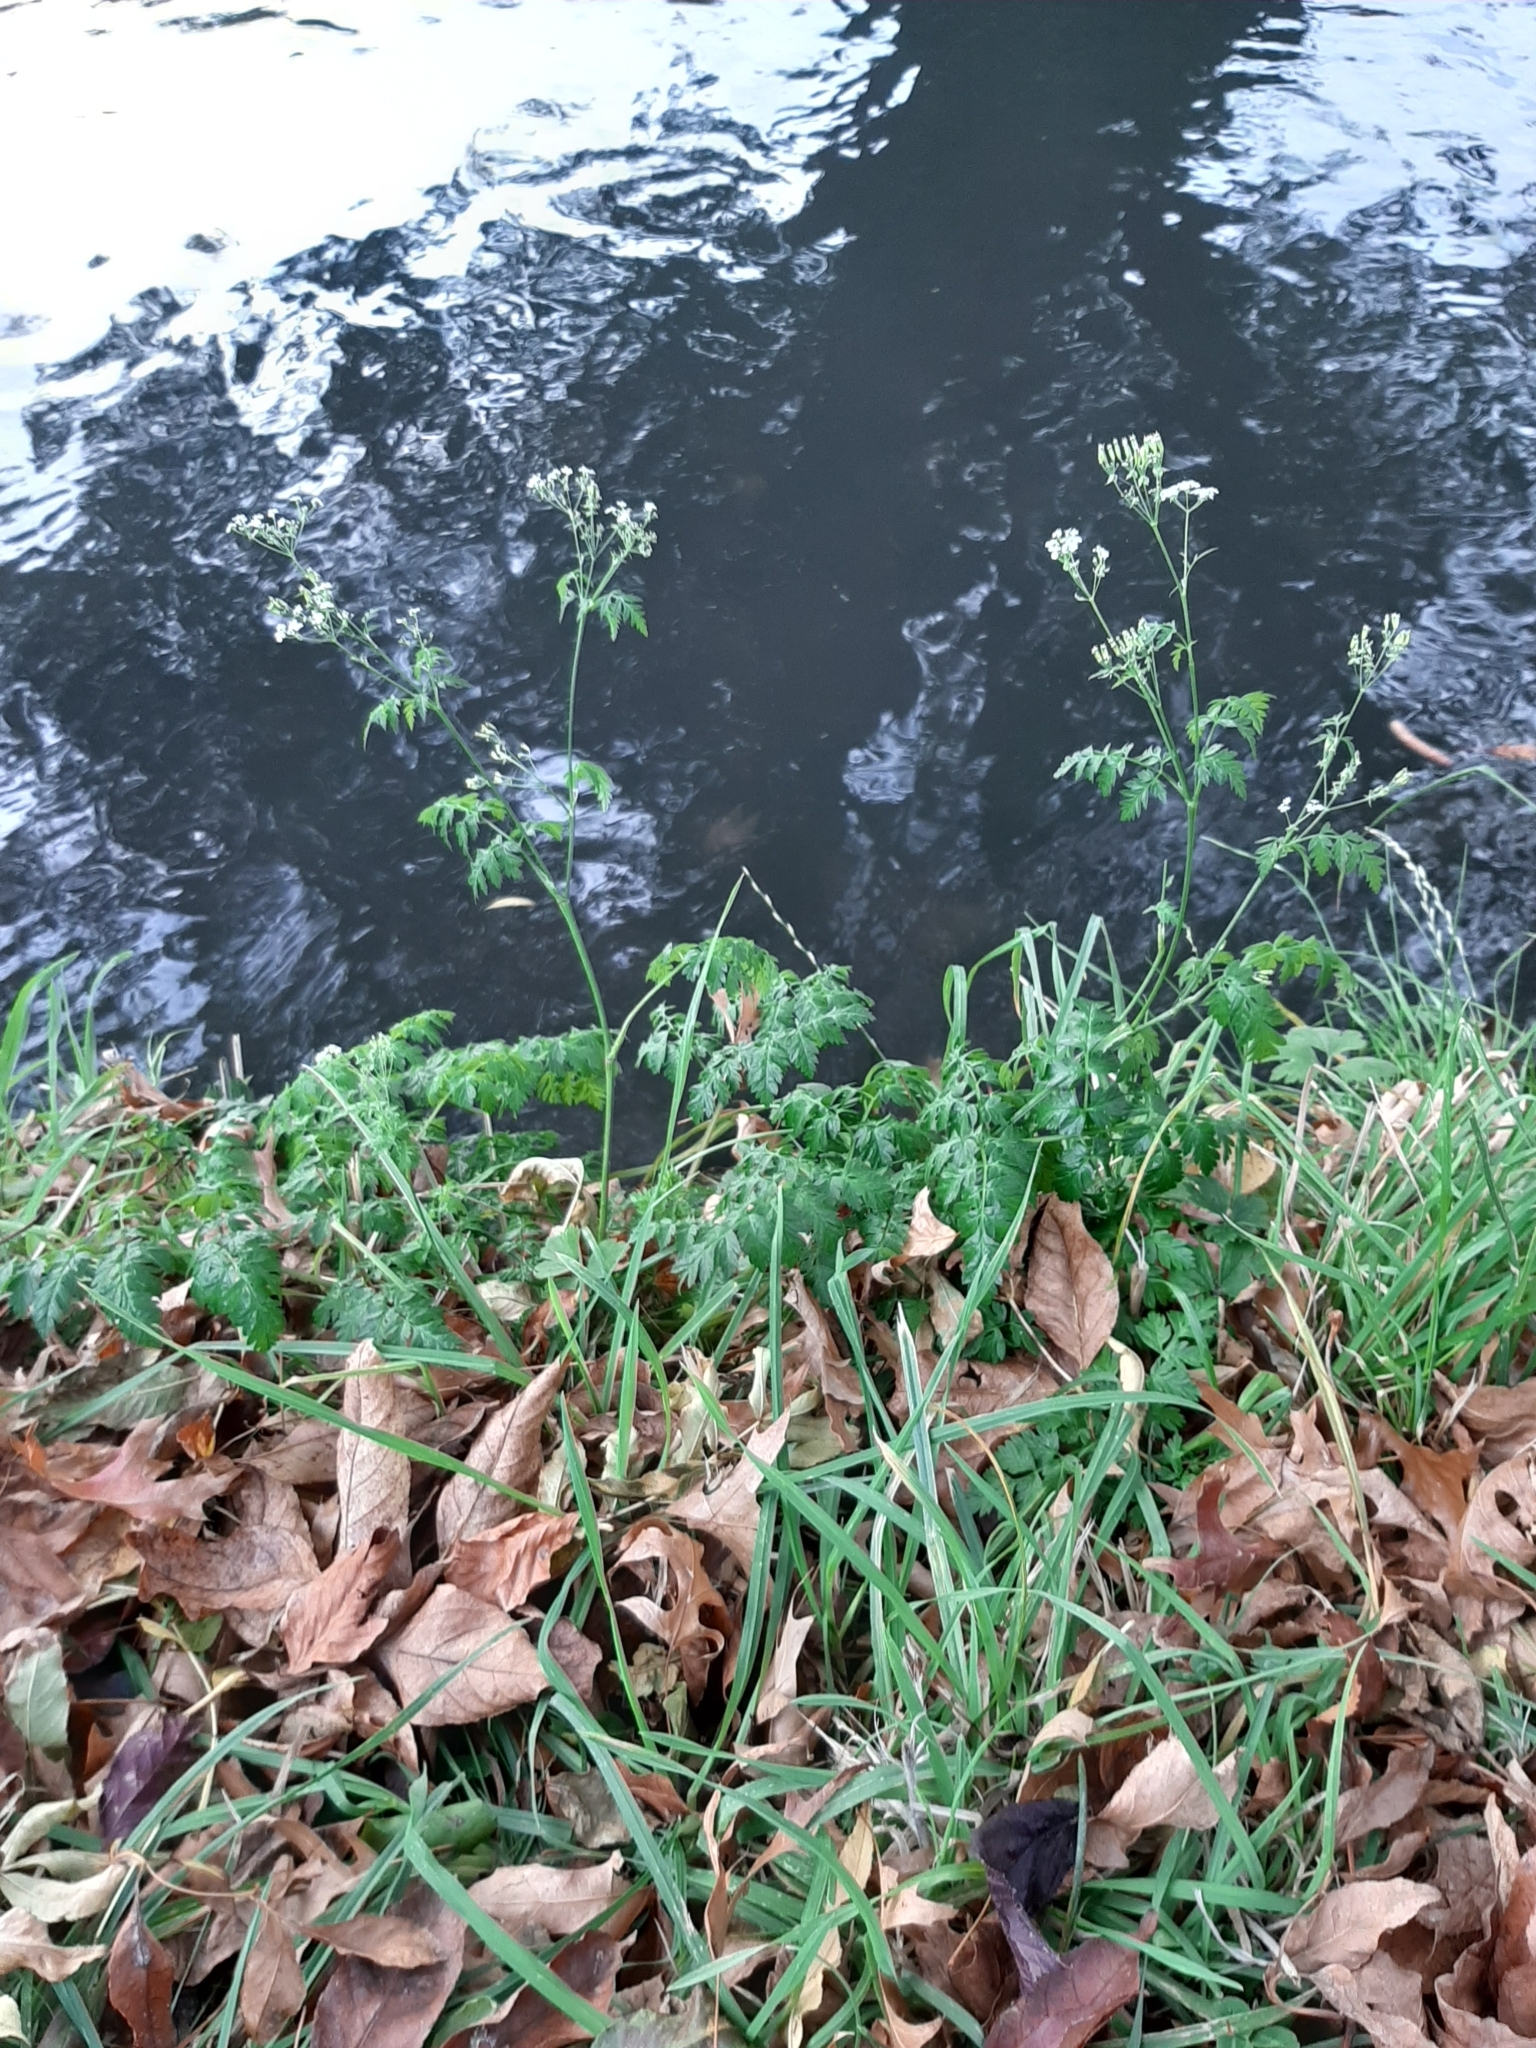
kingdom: Plantae
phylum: Tracheophyta
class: Magnoliopsida
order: Apiales
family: Apiaceae
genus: Anthriscus
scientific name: Anthriscus sylvestris
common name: Cow parsley
